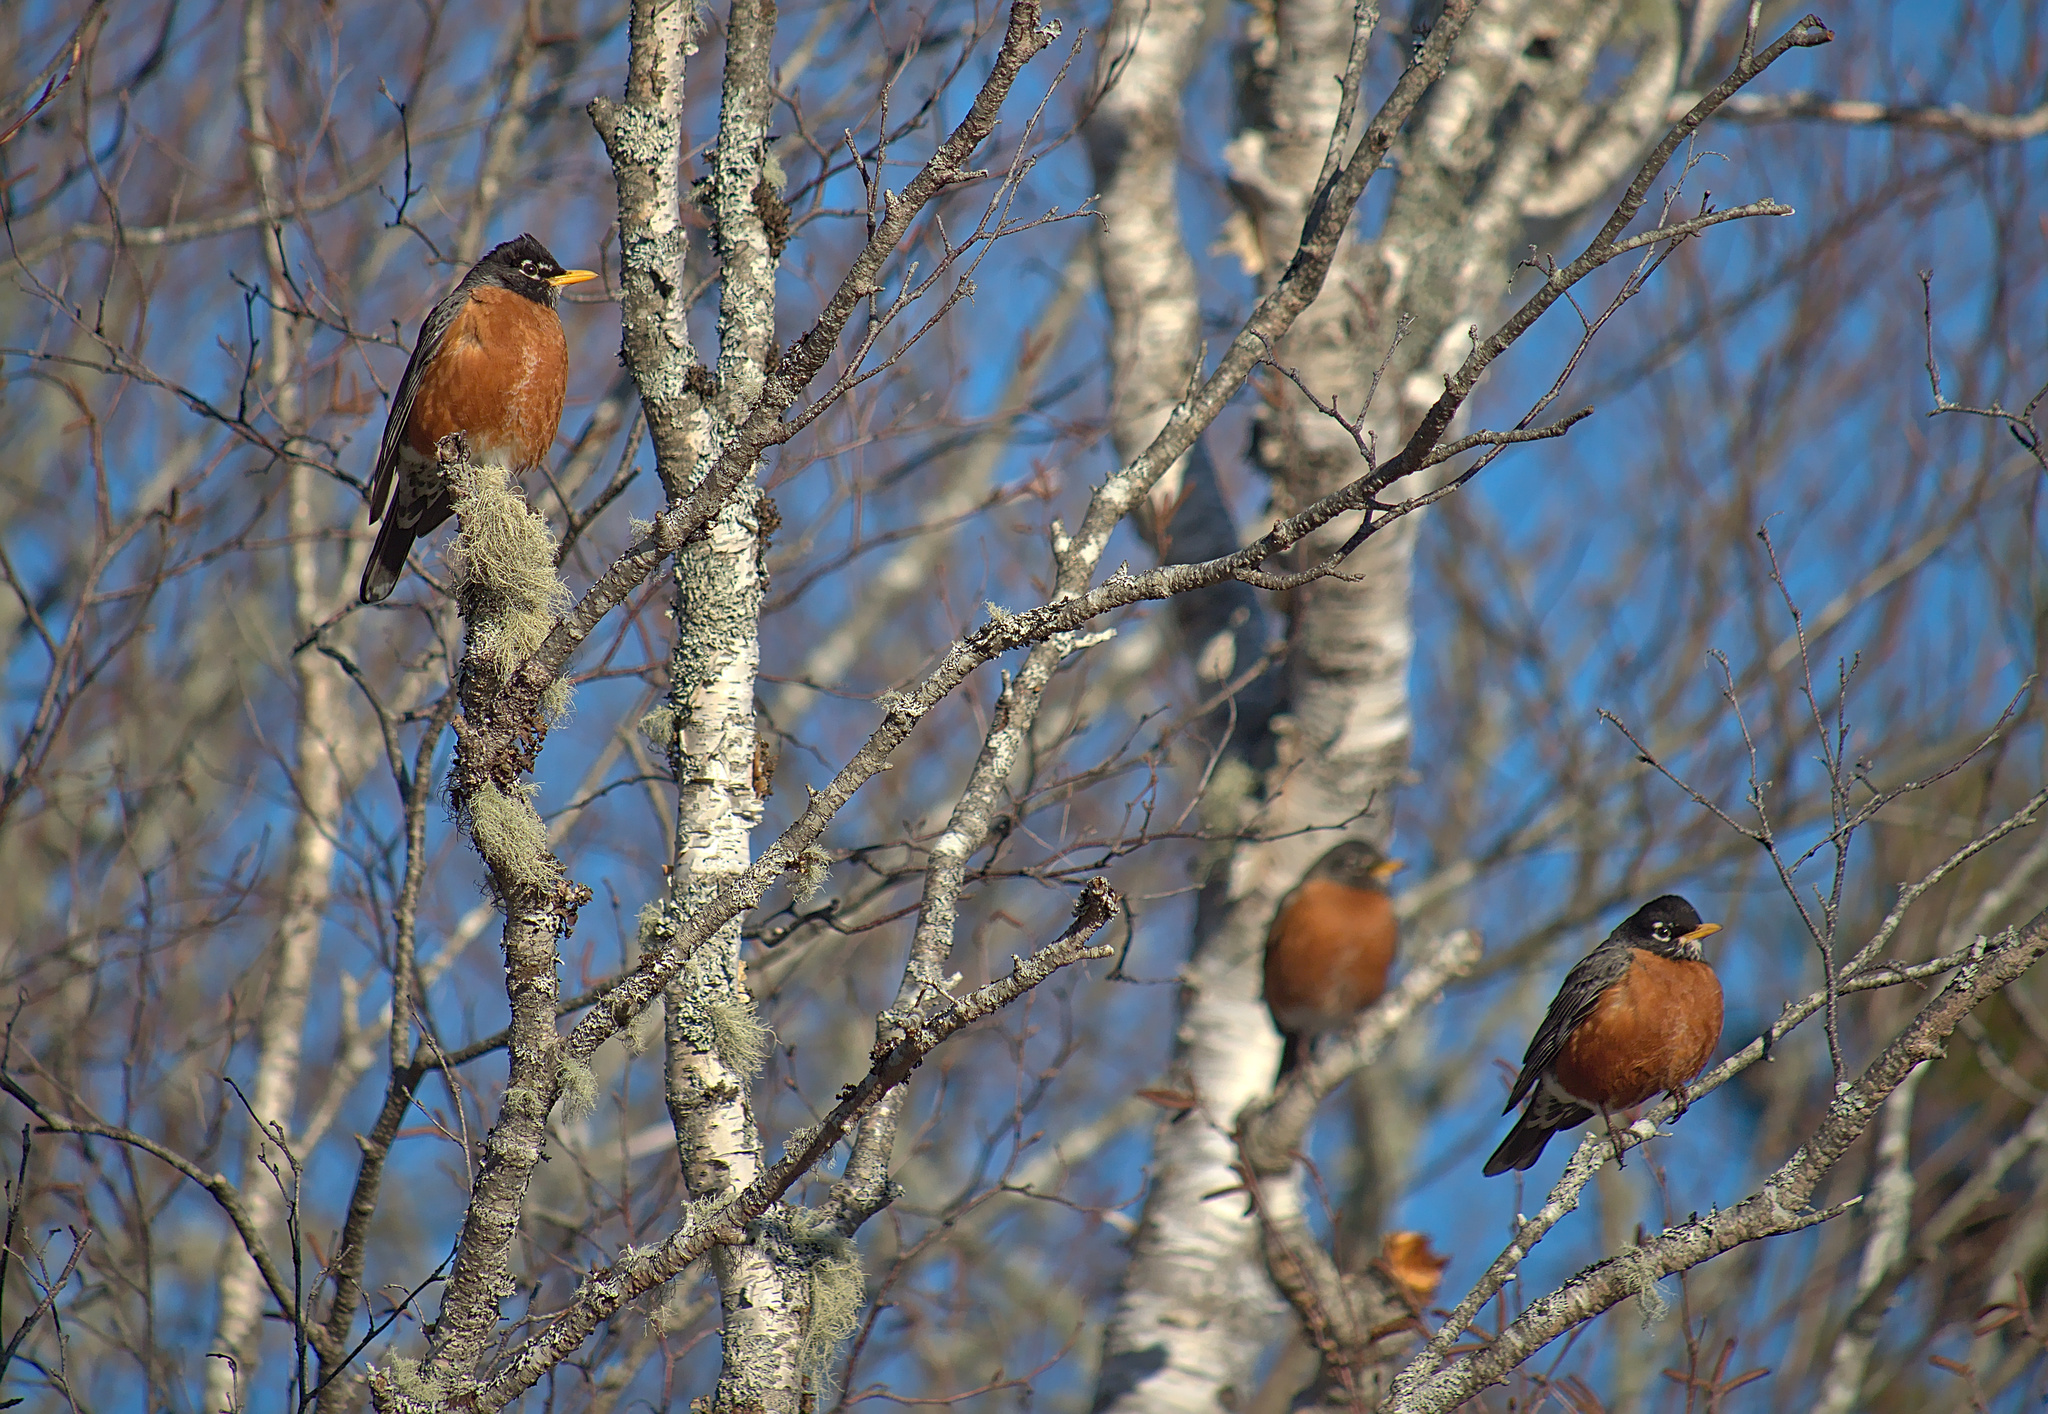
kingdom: Animalia
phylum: Chordata
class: Aves
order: Passeriformes
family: Turdidae
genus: Turdus
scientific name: Turdus migratorius
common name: American robin
